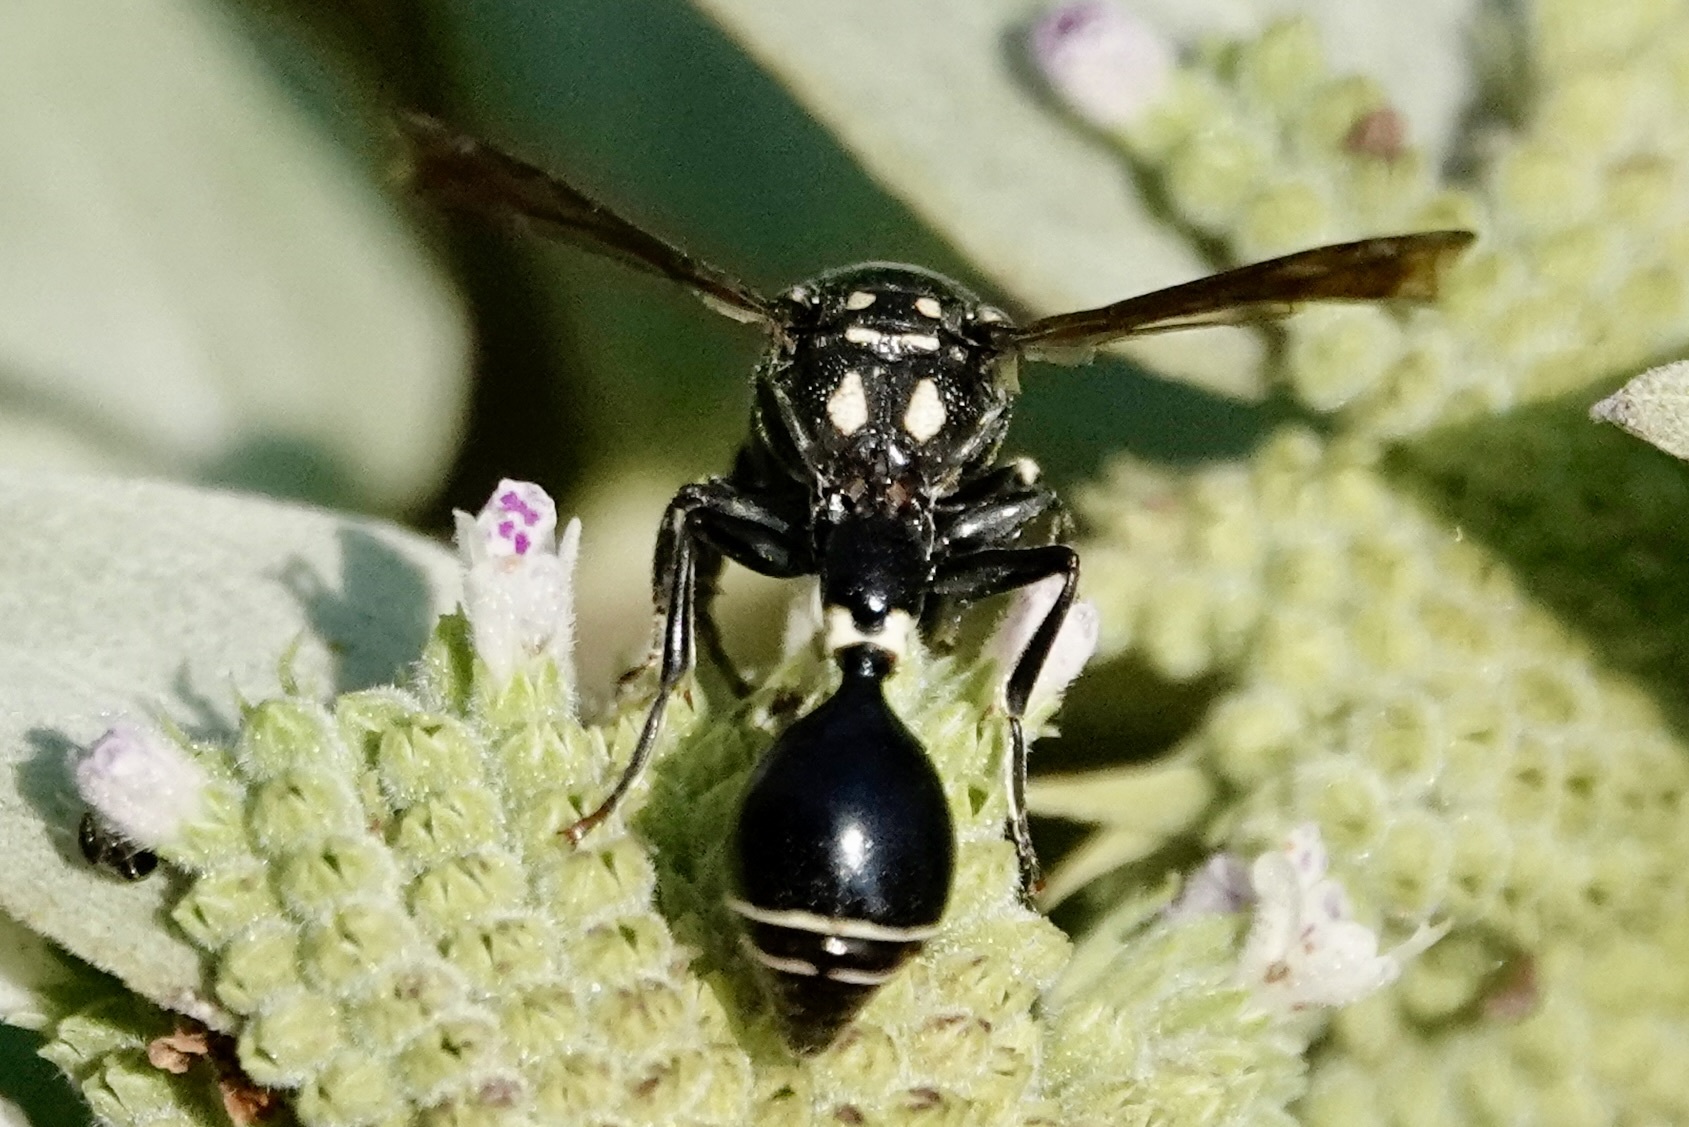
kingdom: Animalia
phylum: Arthropoda
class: Insecta
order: Hymenoptera
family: Eumenidae
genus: Zethus
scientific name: Zethus spinipes
